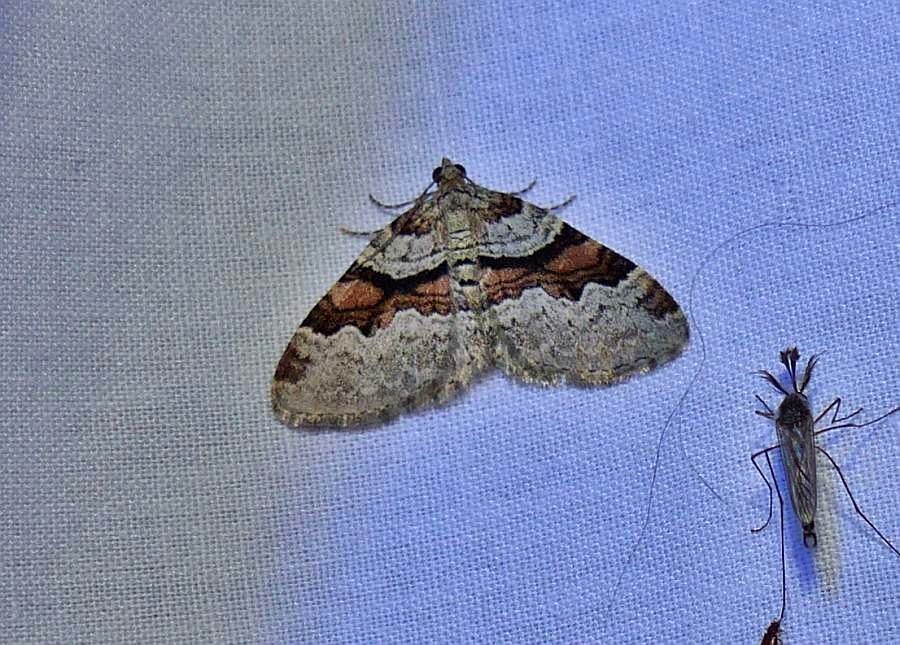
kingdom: Animalia
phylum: Arthropoda
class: Insecta
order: Lepidoptera
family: Geometridae
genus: Xanthorhoe
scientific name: Xanthorhoe labradorensis
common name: Labrador carpet
